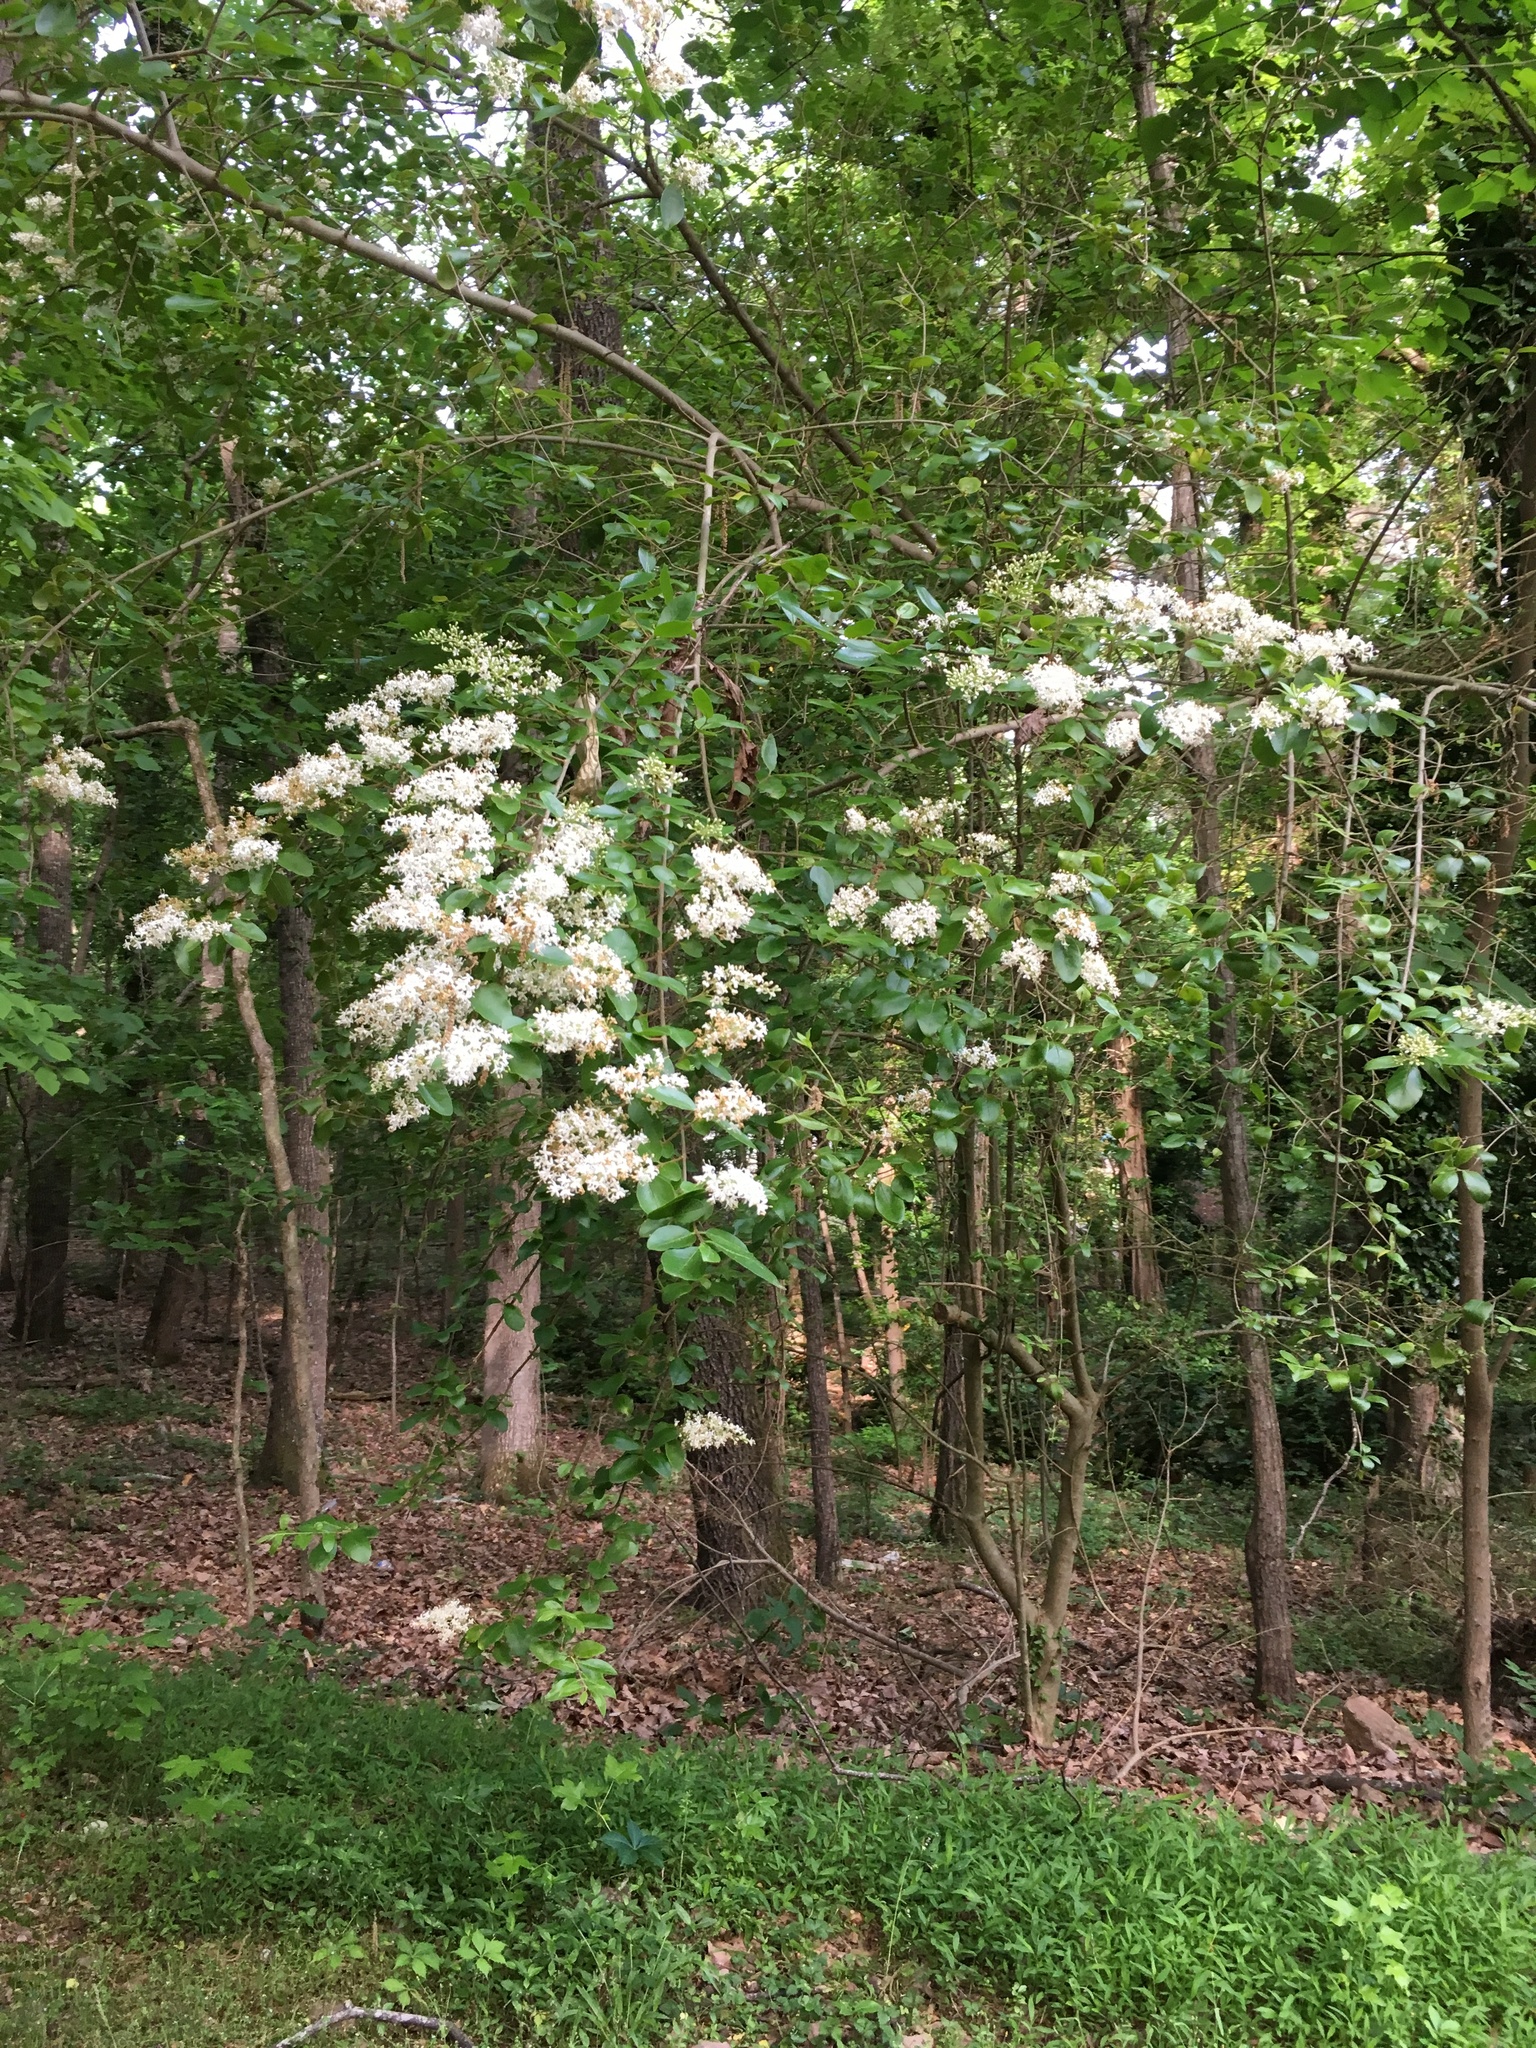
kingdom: Plantae
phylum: Tracheophyta
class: Magnoliopsida
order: Lamiales
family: Oleaceae
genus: Ligustrum
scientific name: Ligustrum sinense
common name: Chinese privet
